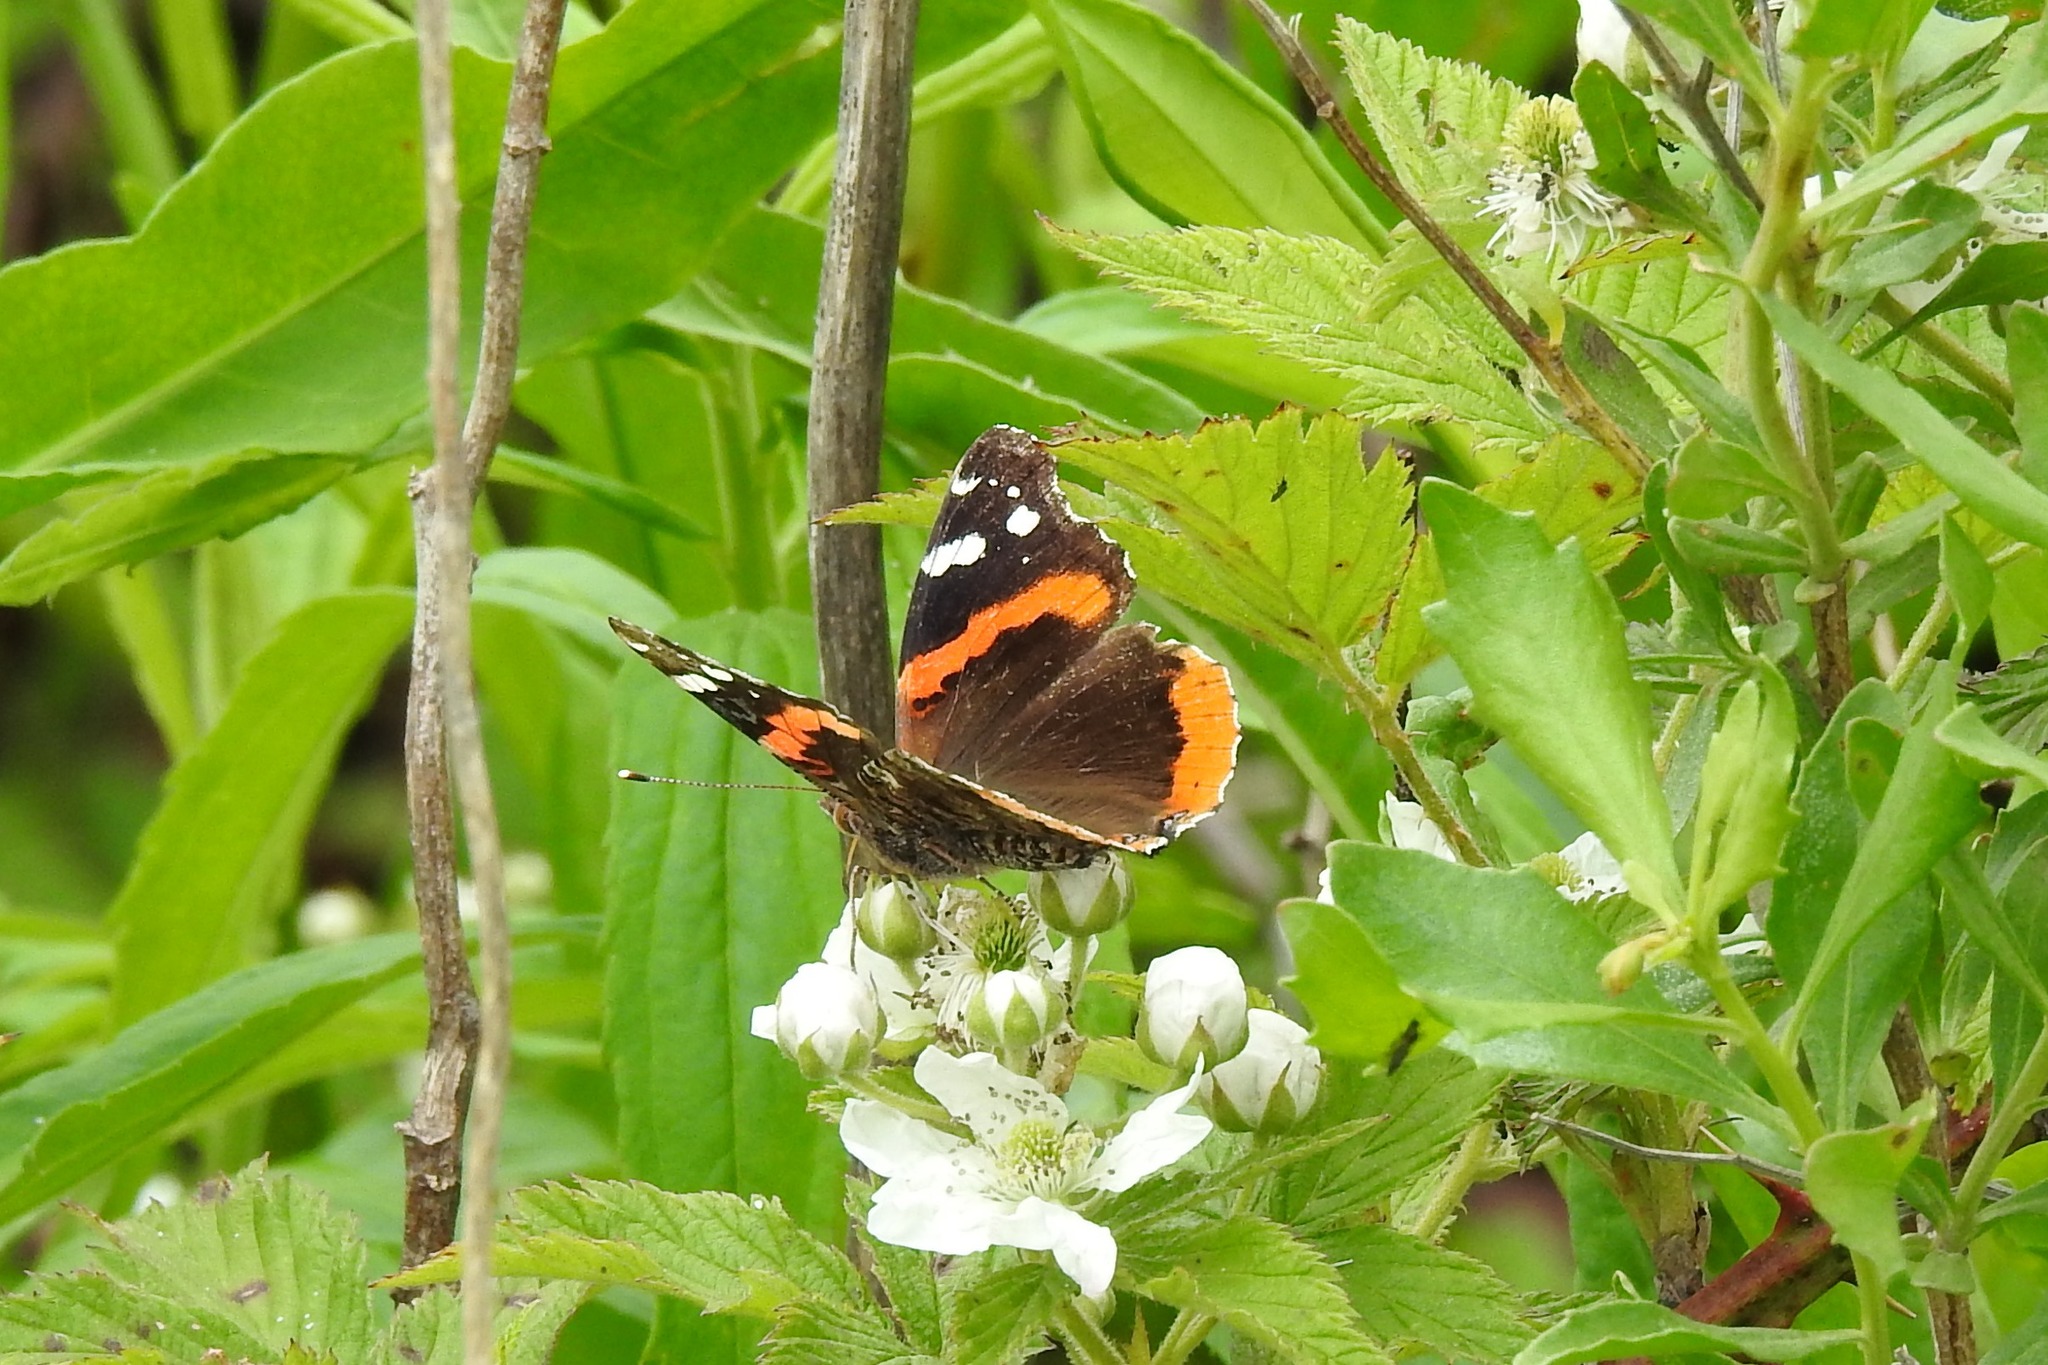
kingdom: Animalia
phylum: Arthropoda
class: Insecta
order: Lepidoptera
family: Nymphalidae
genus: Vanessa
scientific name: Vanessa atalanta
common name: Red admiral
